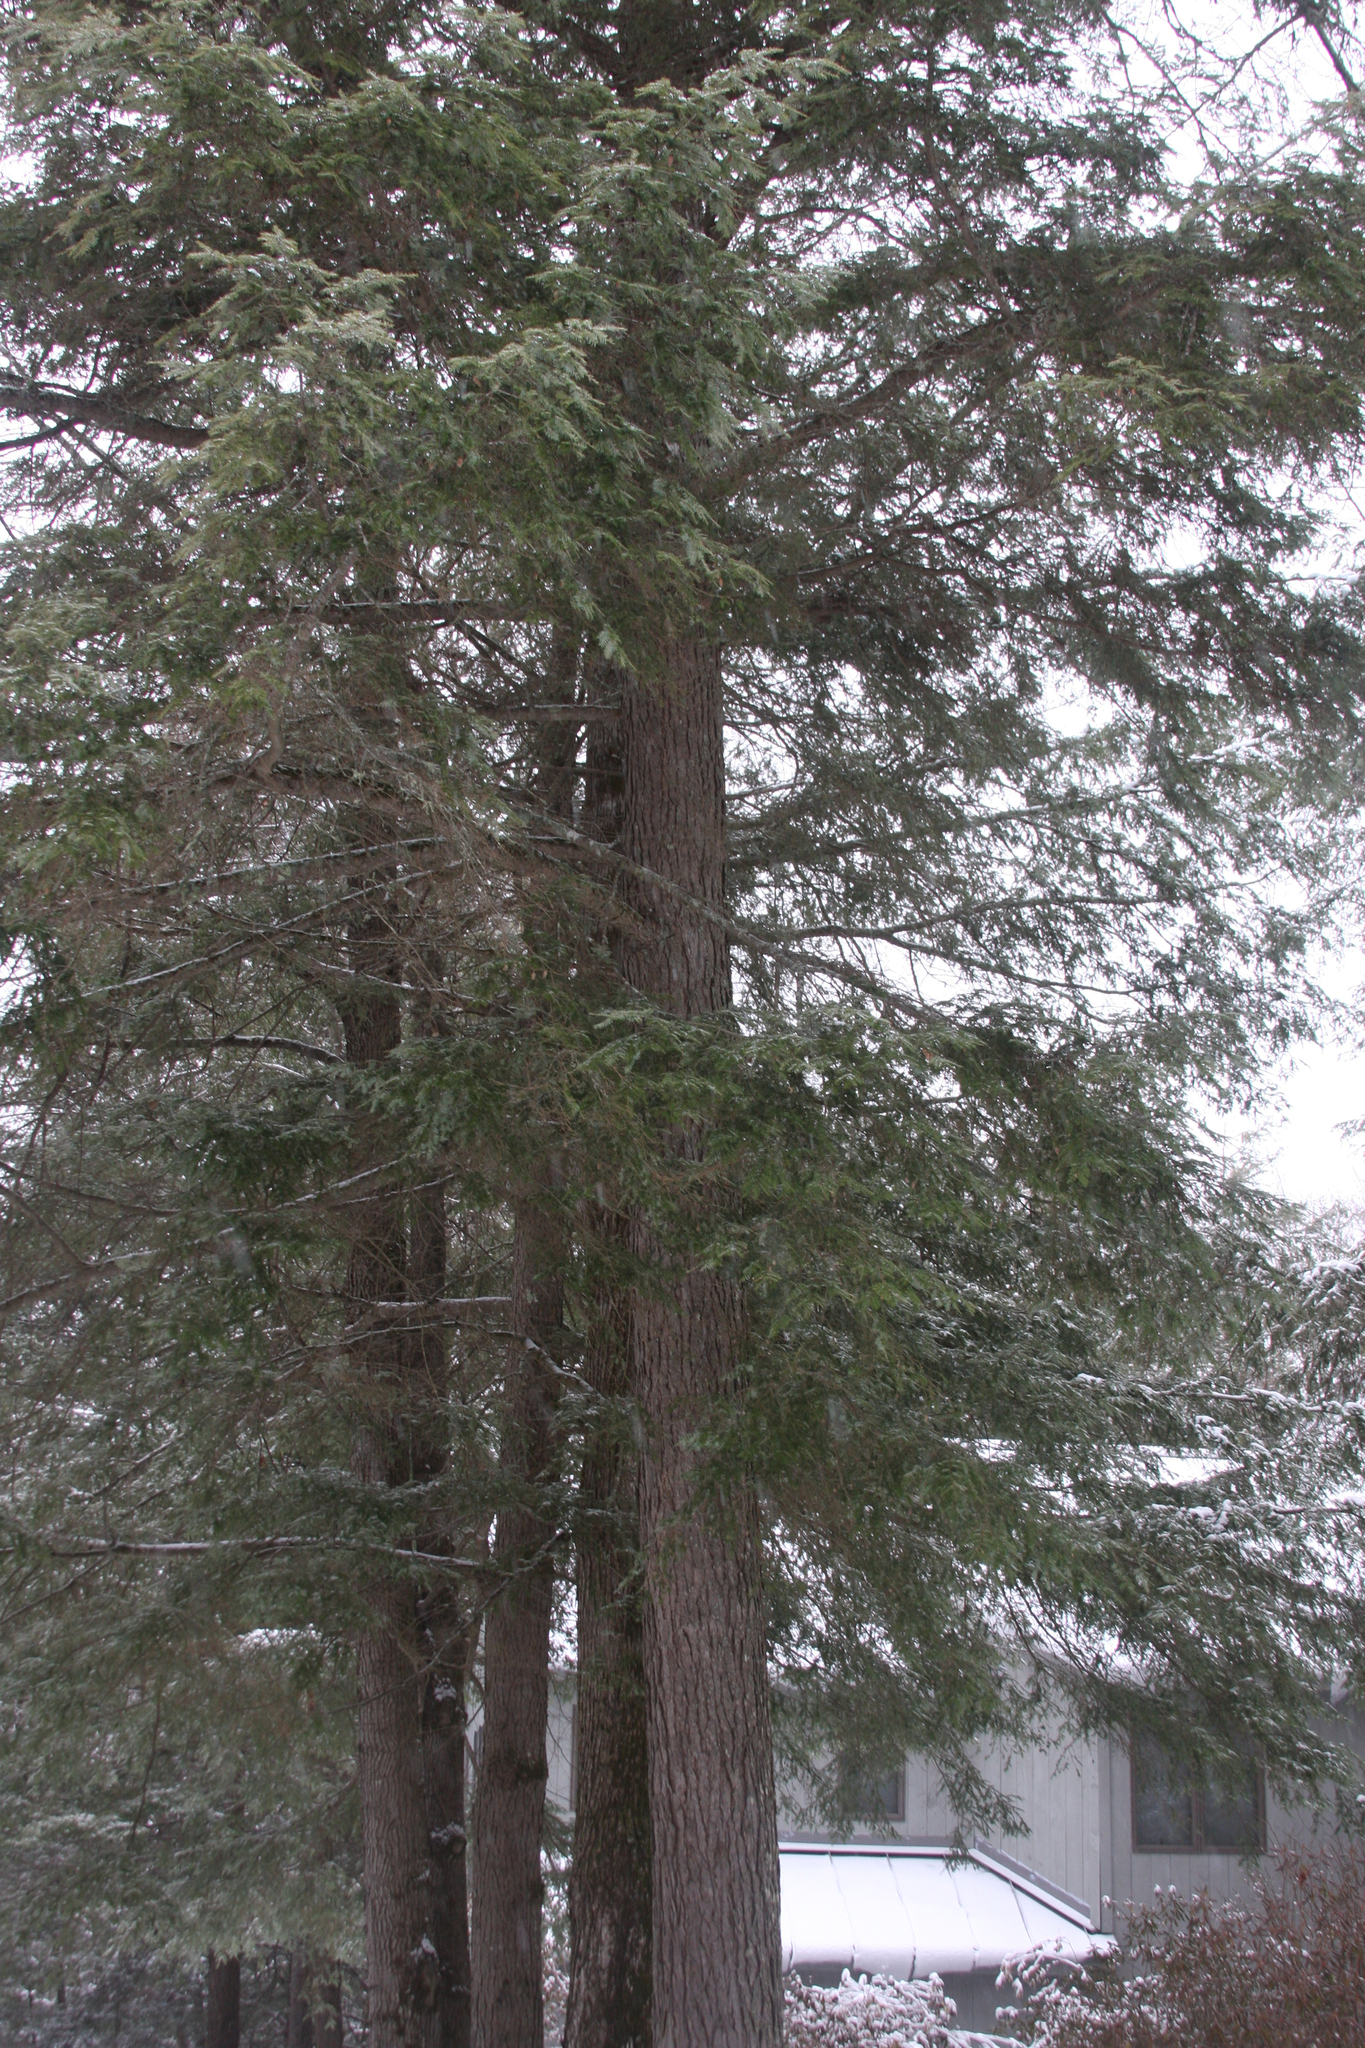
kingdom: Plantae
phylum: Tracheophyta
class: Pinopsida
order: Pinales
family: Pinaceae
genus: Tsuga
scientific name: Tsuga canadensis
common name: Eastern hemlock
